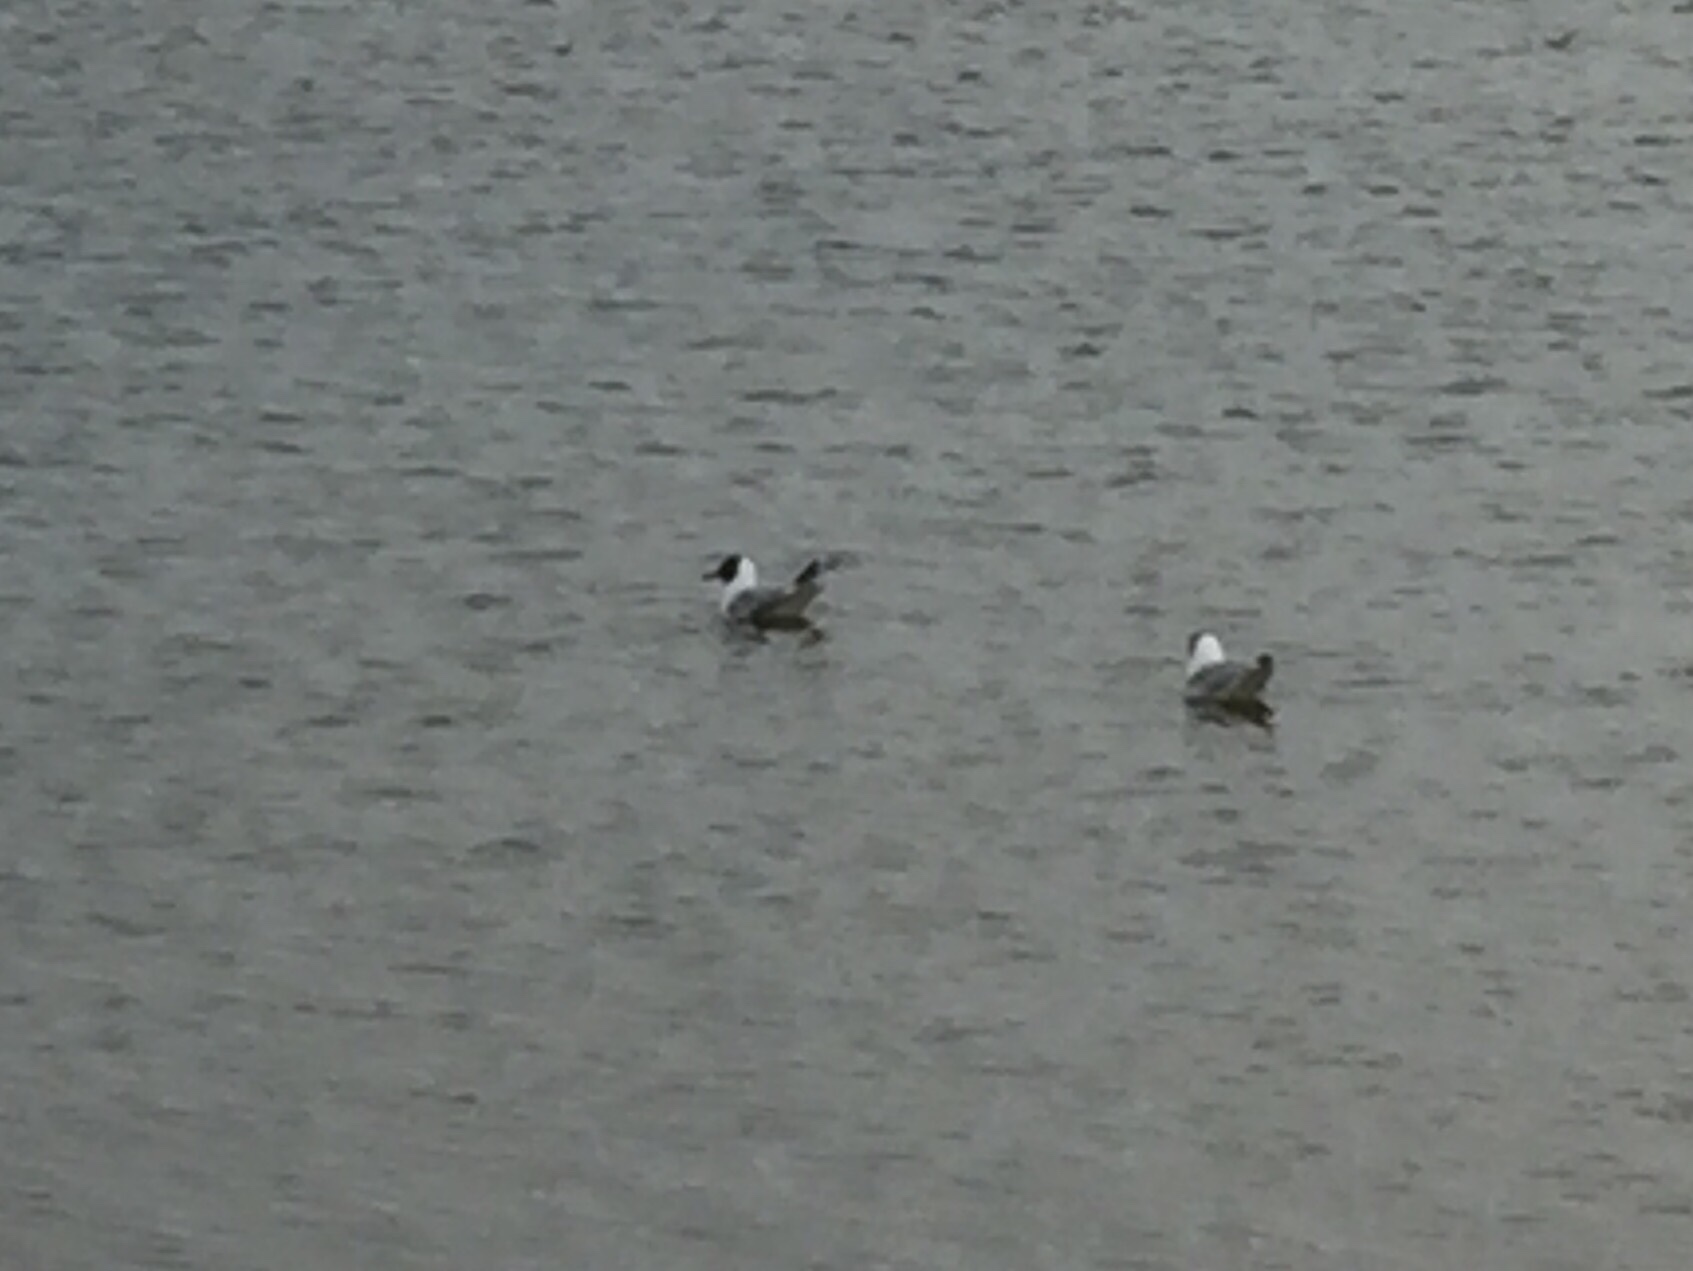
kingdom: Animalia
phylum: Chordata
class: Aves
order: Charadriiformes
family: Laridae
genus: Chroicocephalus
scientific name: Chroicocephalus ridibundus
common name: Black-headed gull
